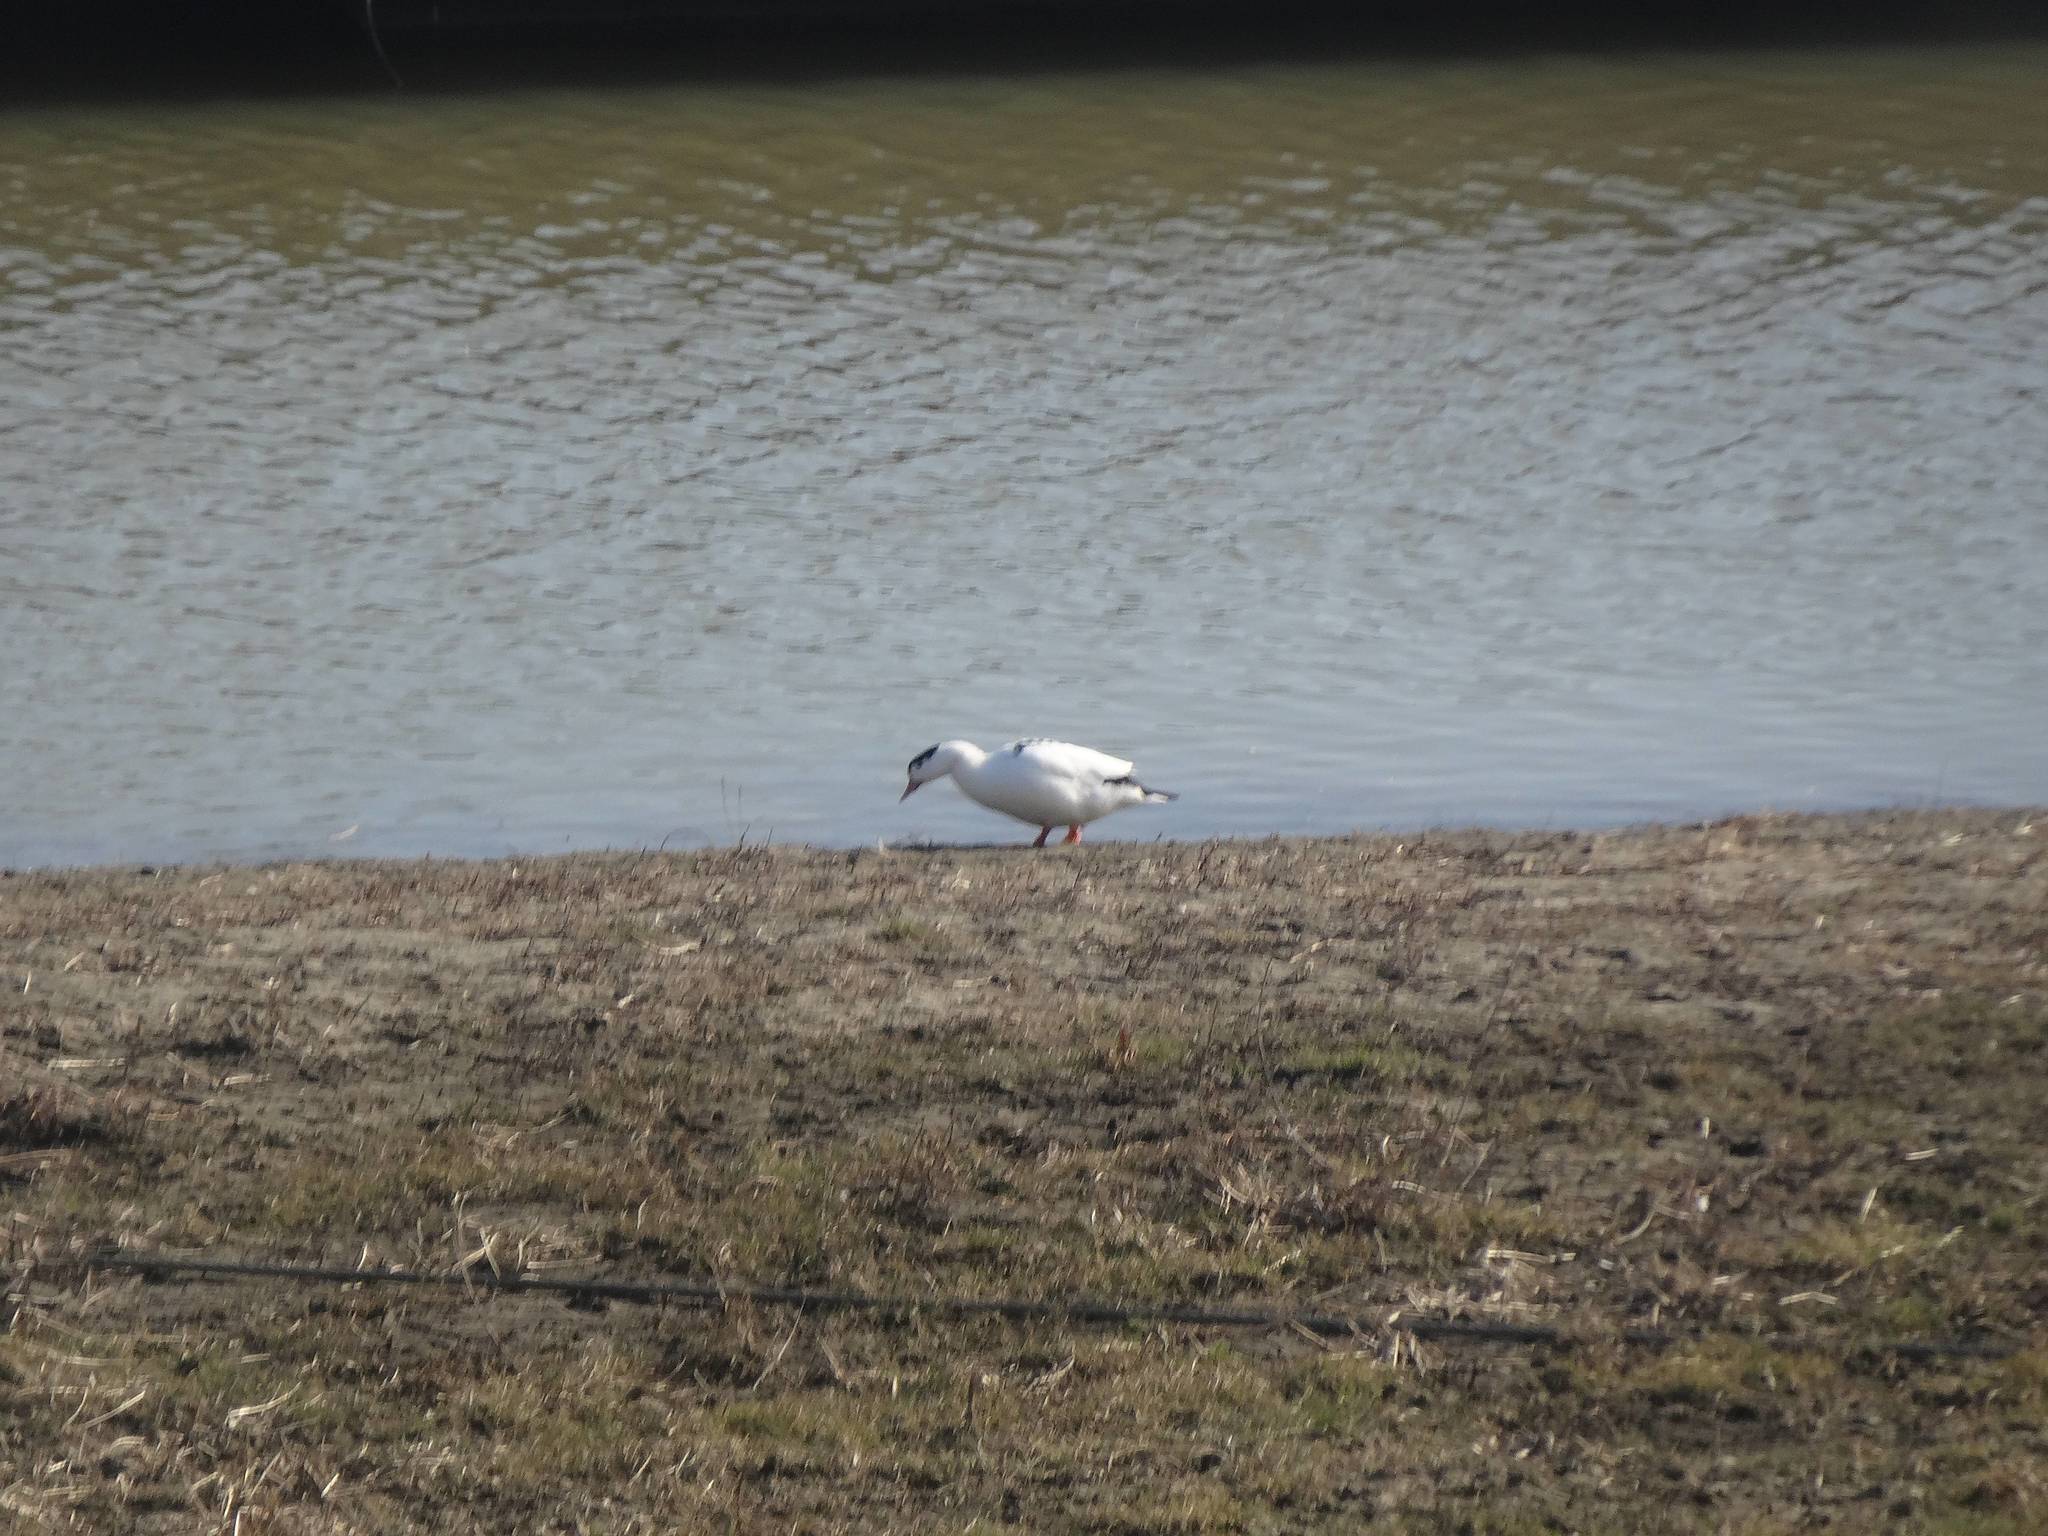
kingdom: Animalia
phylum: Chordata
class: Aves
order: Anseriformes
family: Anatidae
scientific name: Anatidae
